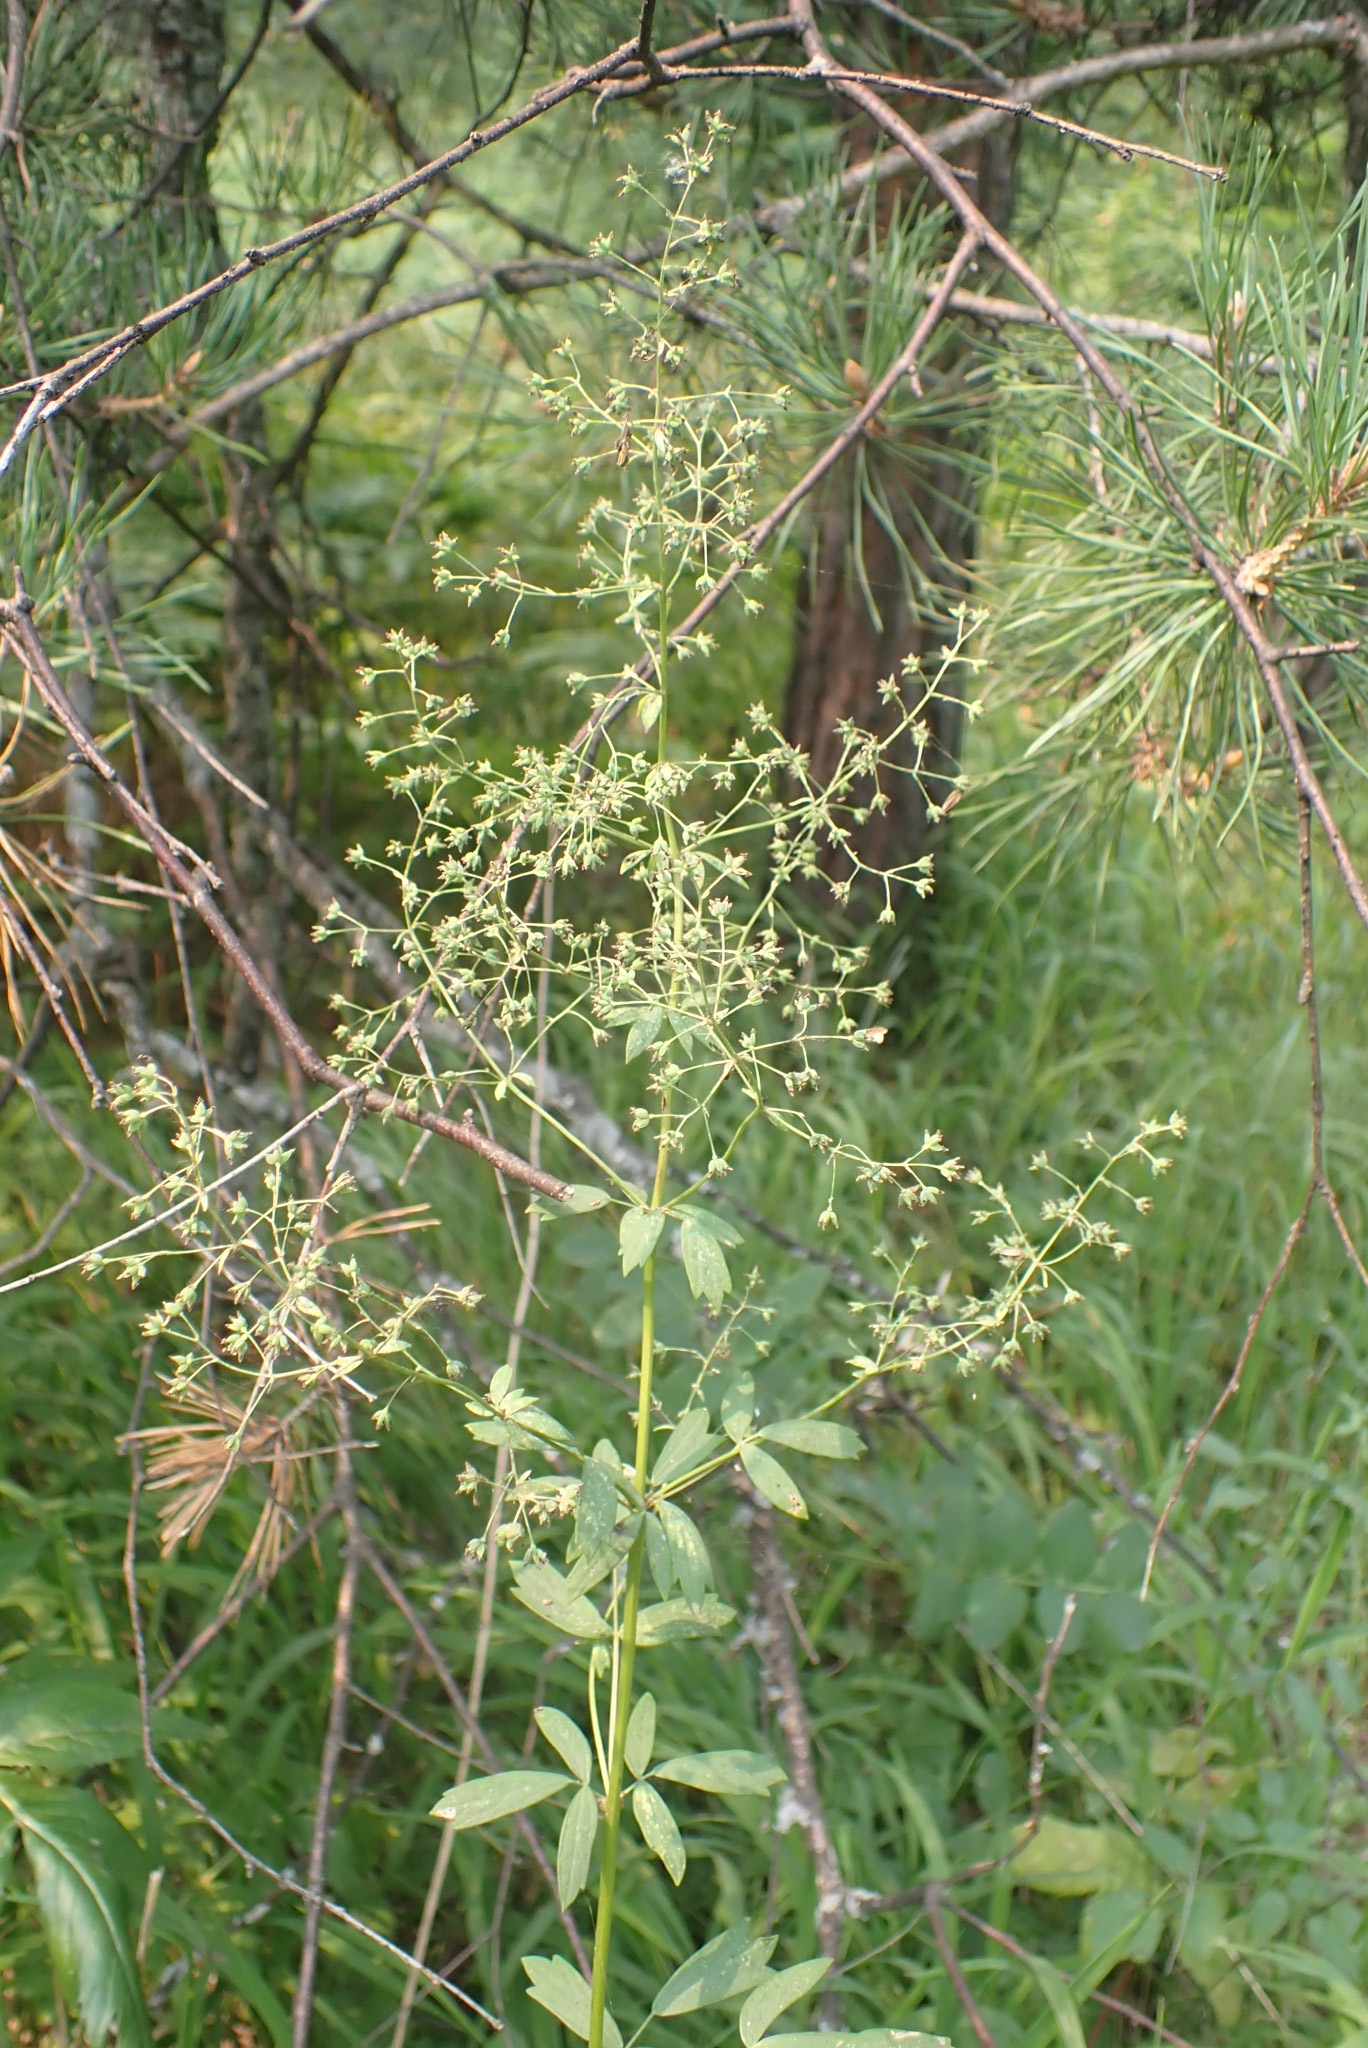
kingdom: Plantae
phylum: Tracheophyta
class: Magnoliopsida
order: Ranunculales
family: Ranunculaceae
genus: Thalictrum
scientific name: Thalictrum simplex
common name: Small meadow-rue
